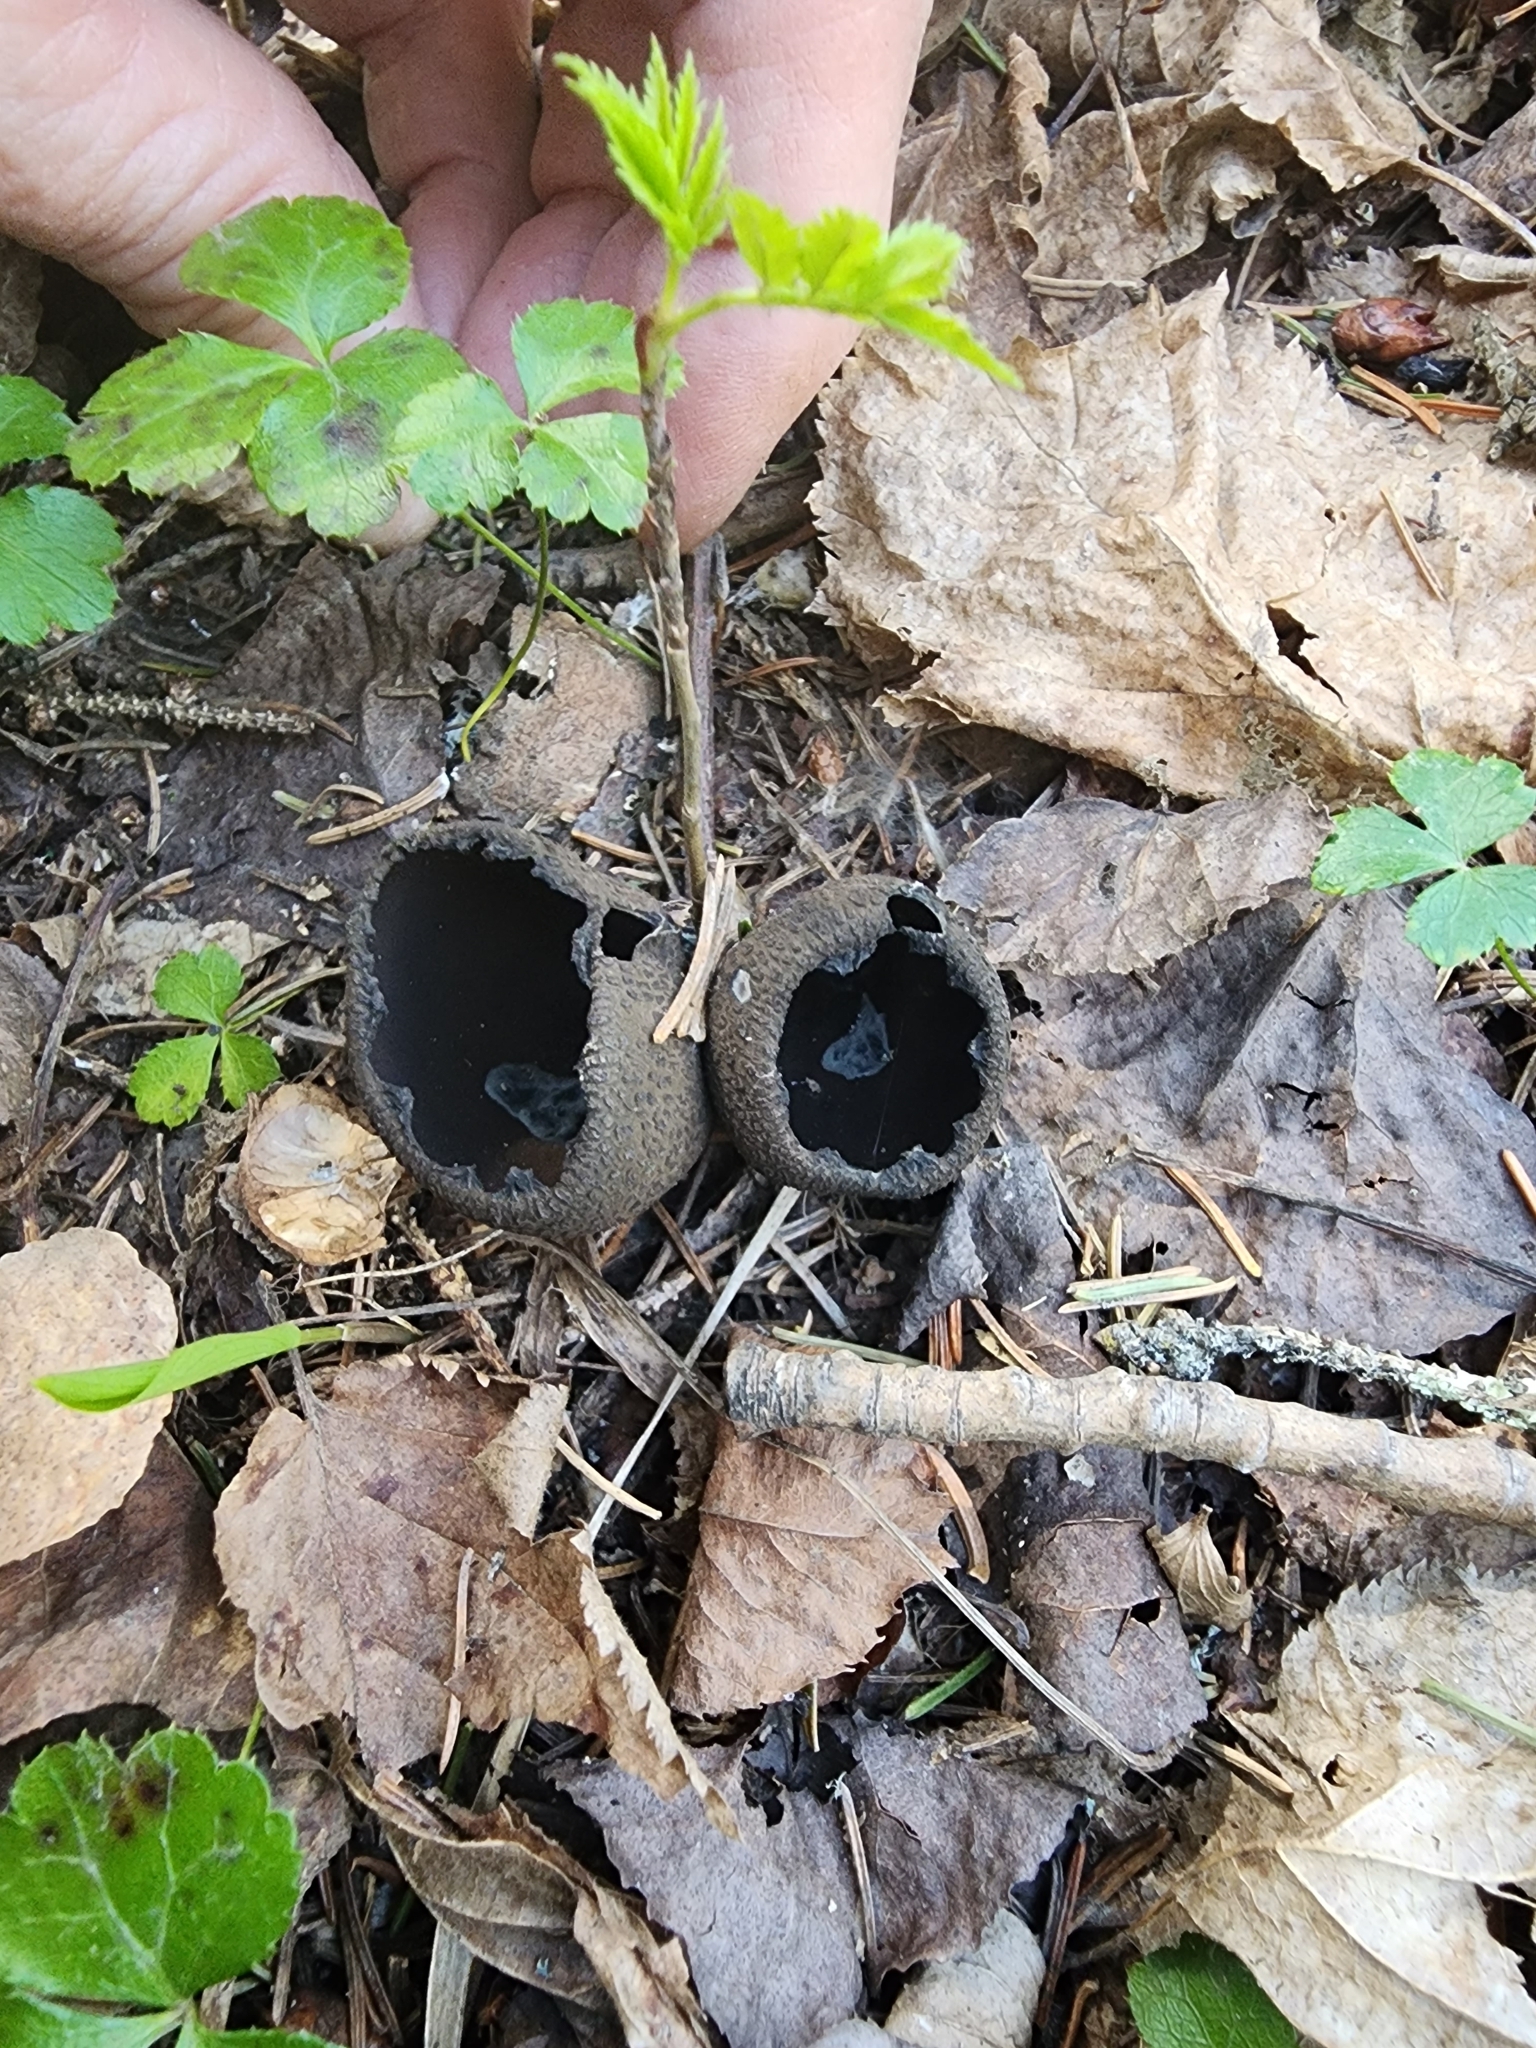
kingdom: Fungi
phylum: Ascomycota
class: Pezizomycetes
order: Pezizales
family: Sarcosomataceae
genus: Urnula
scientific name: Urnula craterium
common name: Devil's urn
